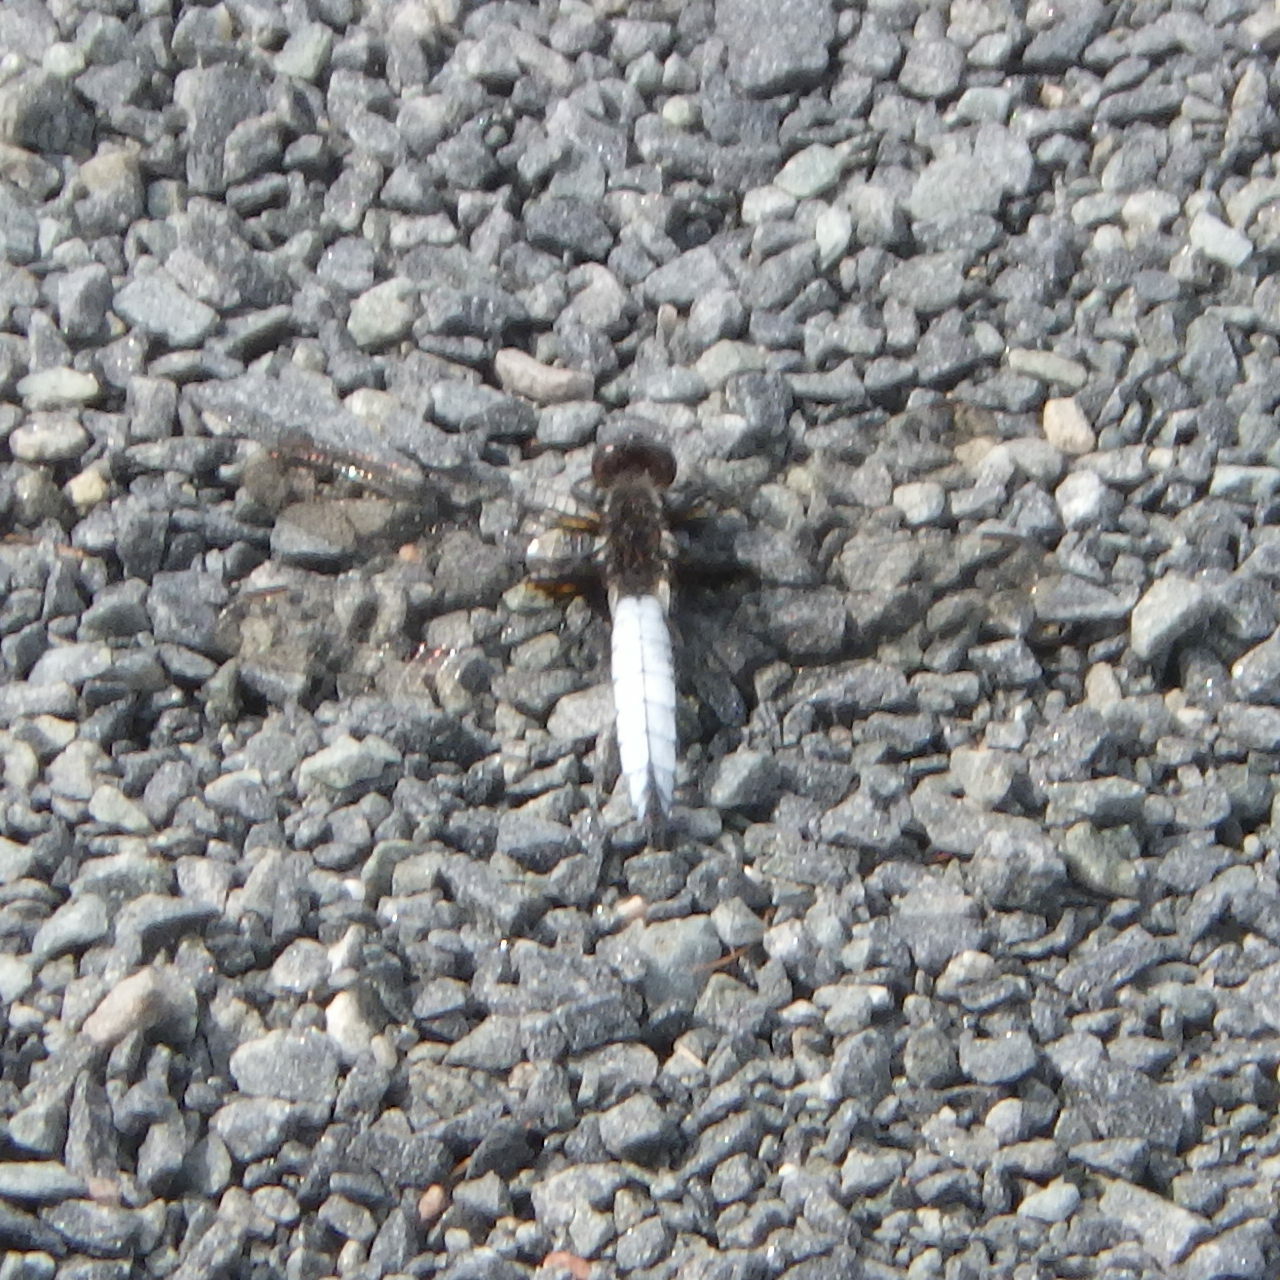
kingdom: Animalia
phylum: Arthropoda
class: Insecta
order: Odonata
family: Libellulidae
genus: Ladona
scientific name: Ladona exusta
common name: Libellule embrasée
